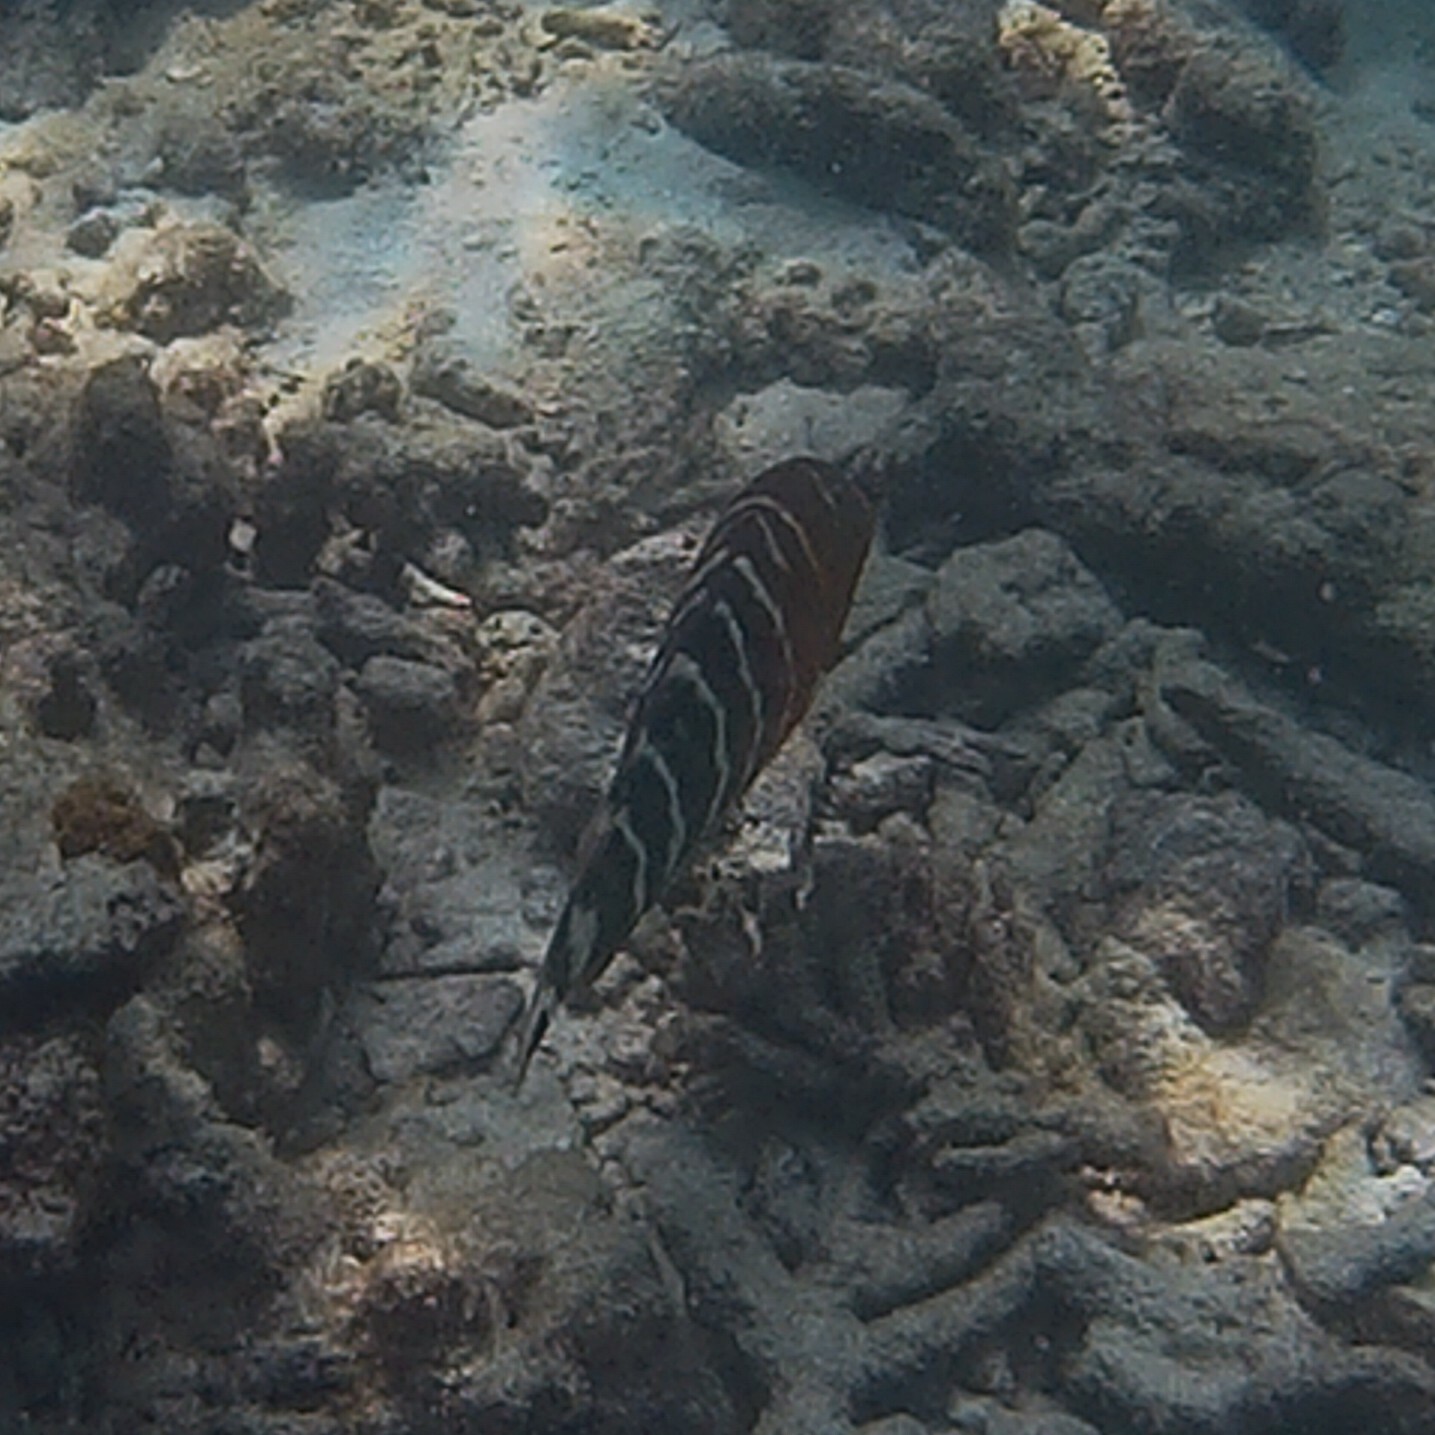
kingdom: Animalia
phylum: Chordata
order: Perciformes
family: Labridae
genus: Cheilinus
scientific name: Cheilinus fasciatus
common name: Red-breasted wrasse
